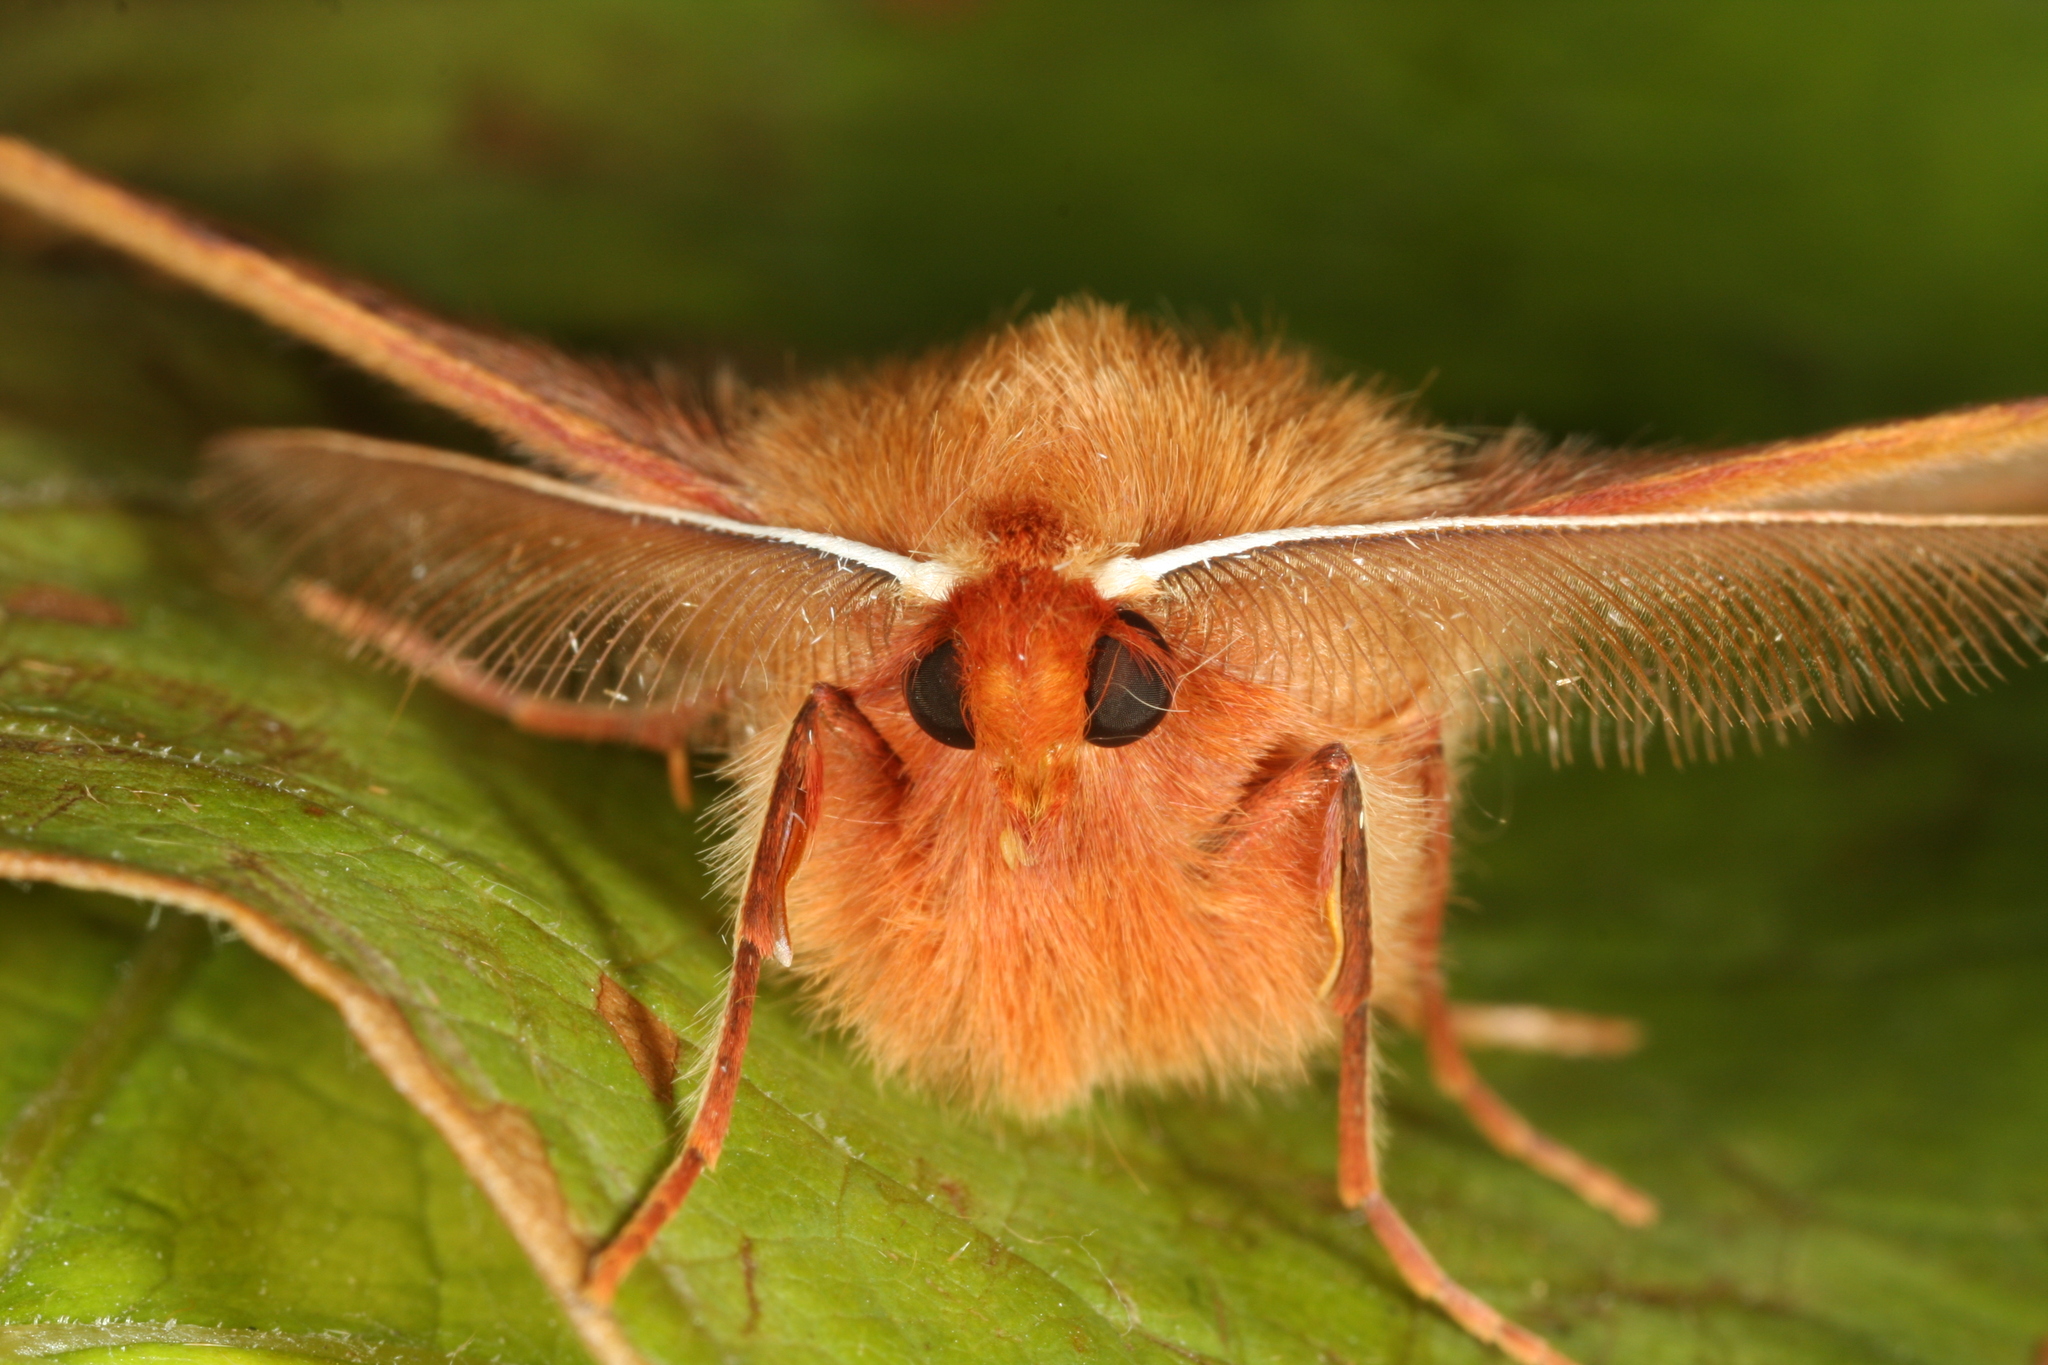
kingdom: Animalia
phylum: Arthropoda
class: Insecta
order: Lepidoptera
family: Geometridae
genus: Colotois
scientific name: Colotois pennaria
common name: Feathered thorn
